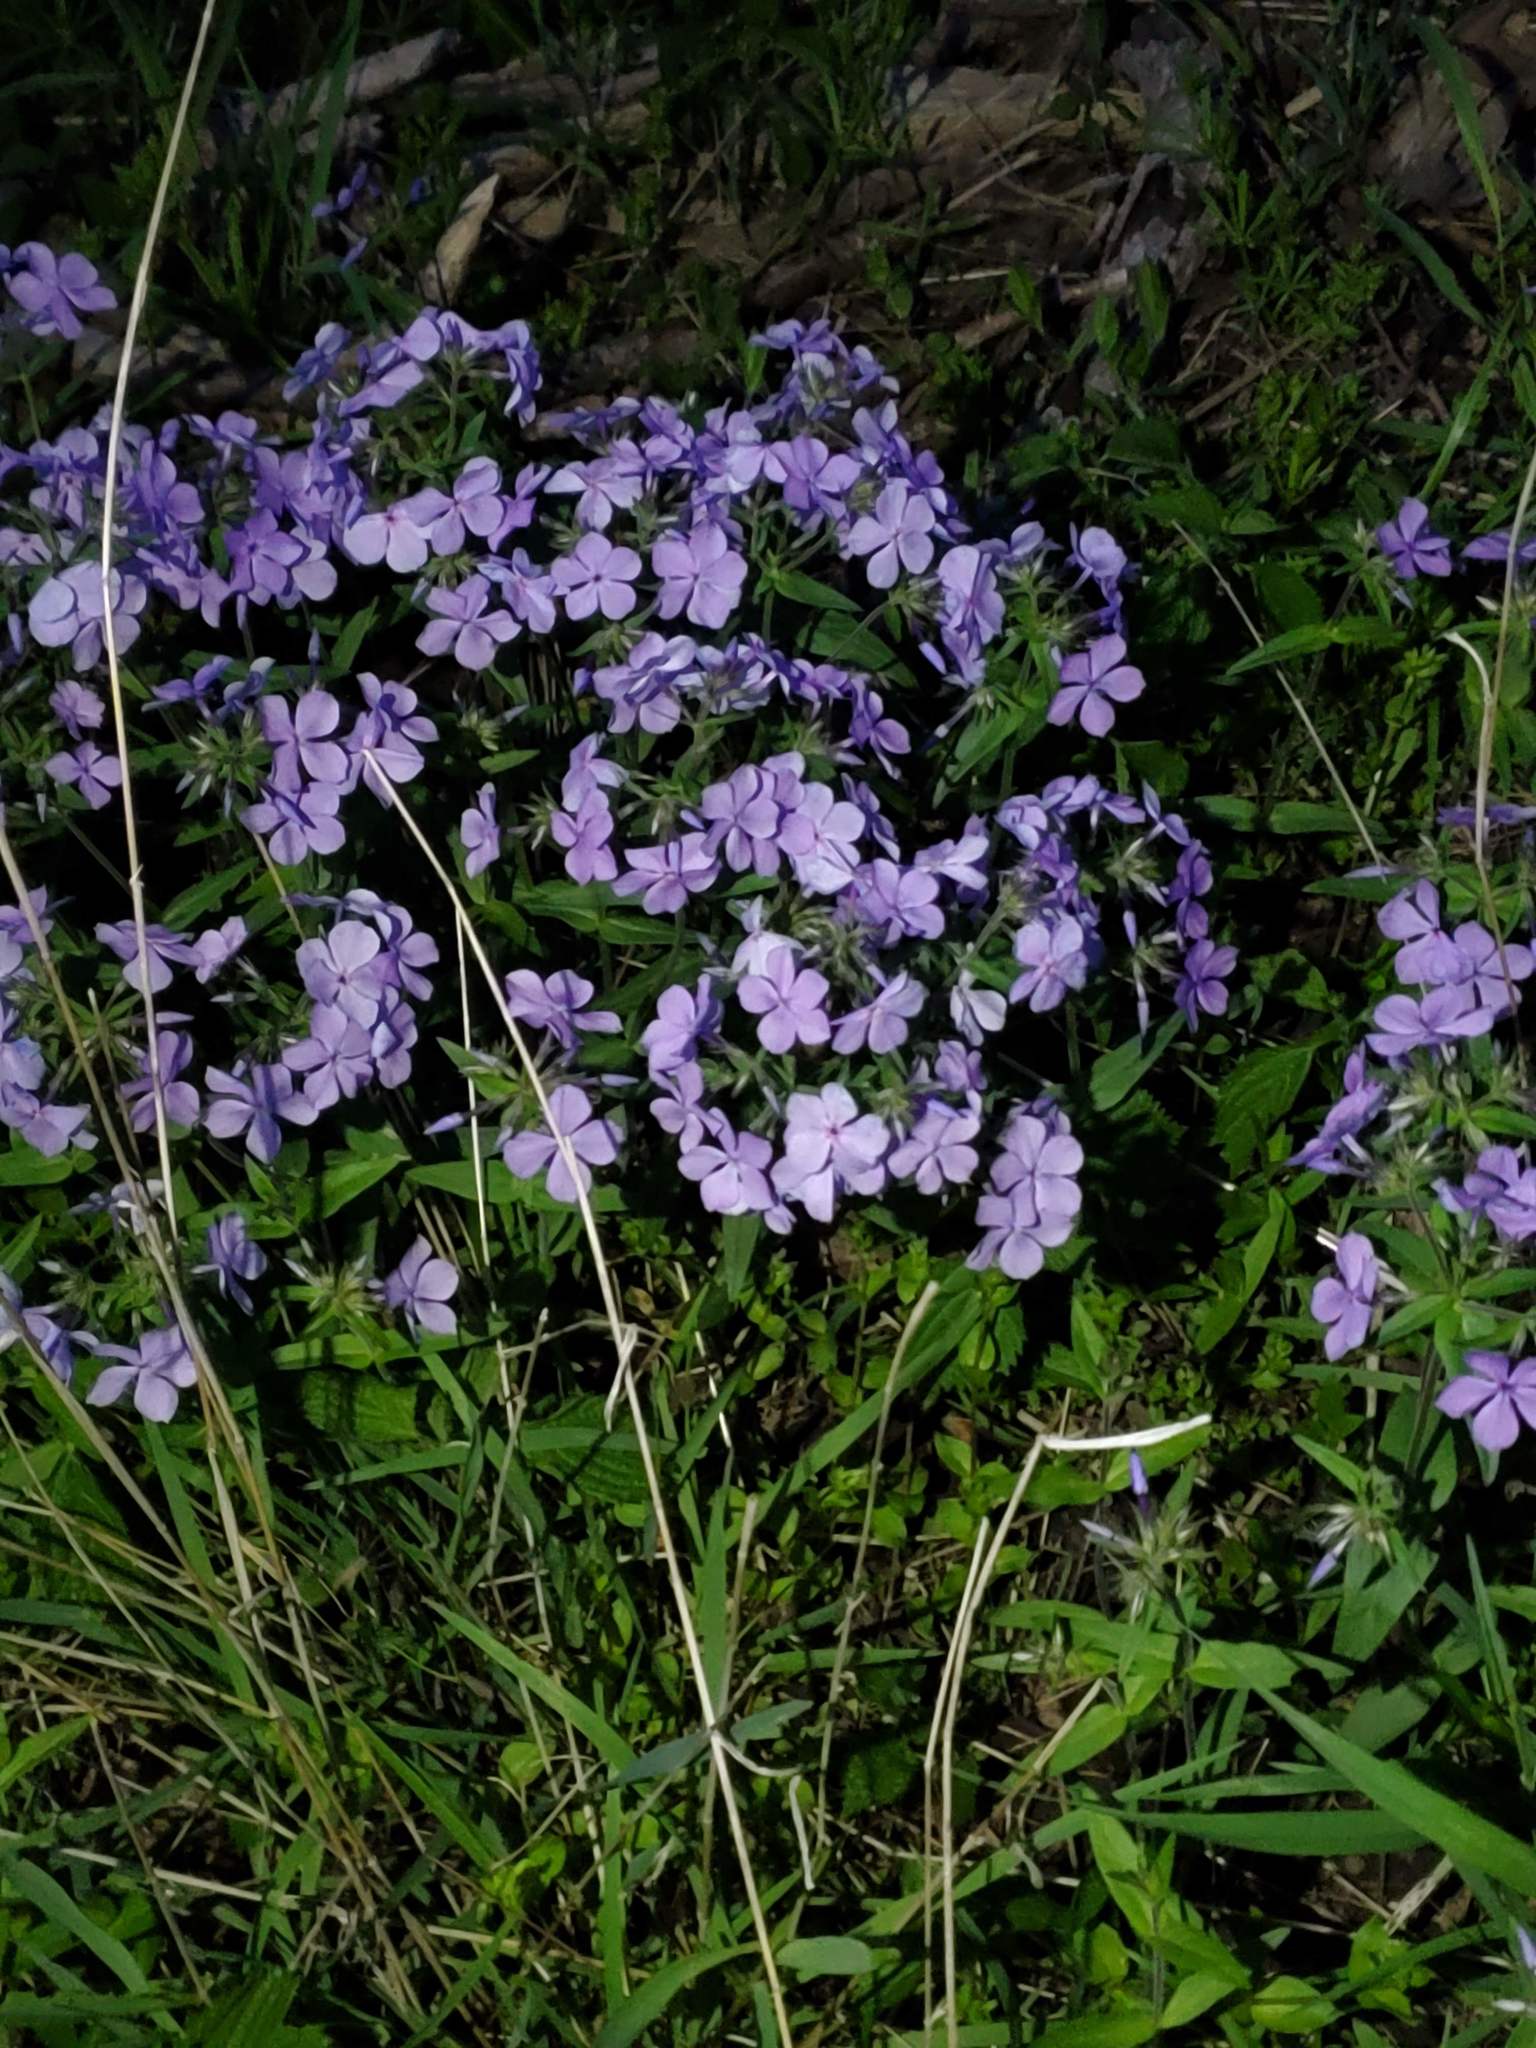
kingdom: Plantae
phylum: Tracheophyta
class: Magnoliopsida
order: Ericales
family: Polemoniaceae
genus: Phlox
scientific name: Phlox divaricata
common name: Blue phlox
